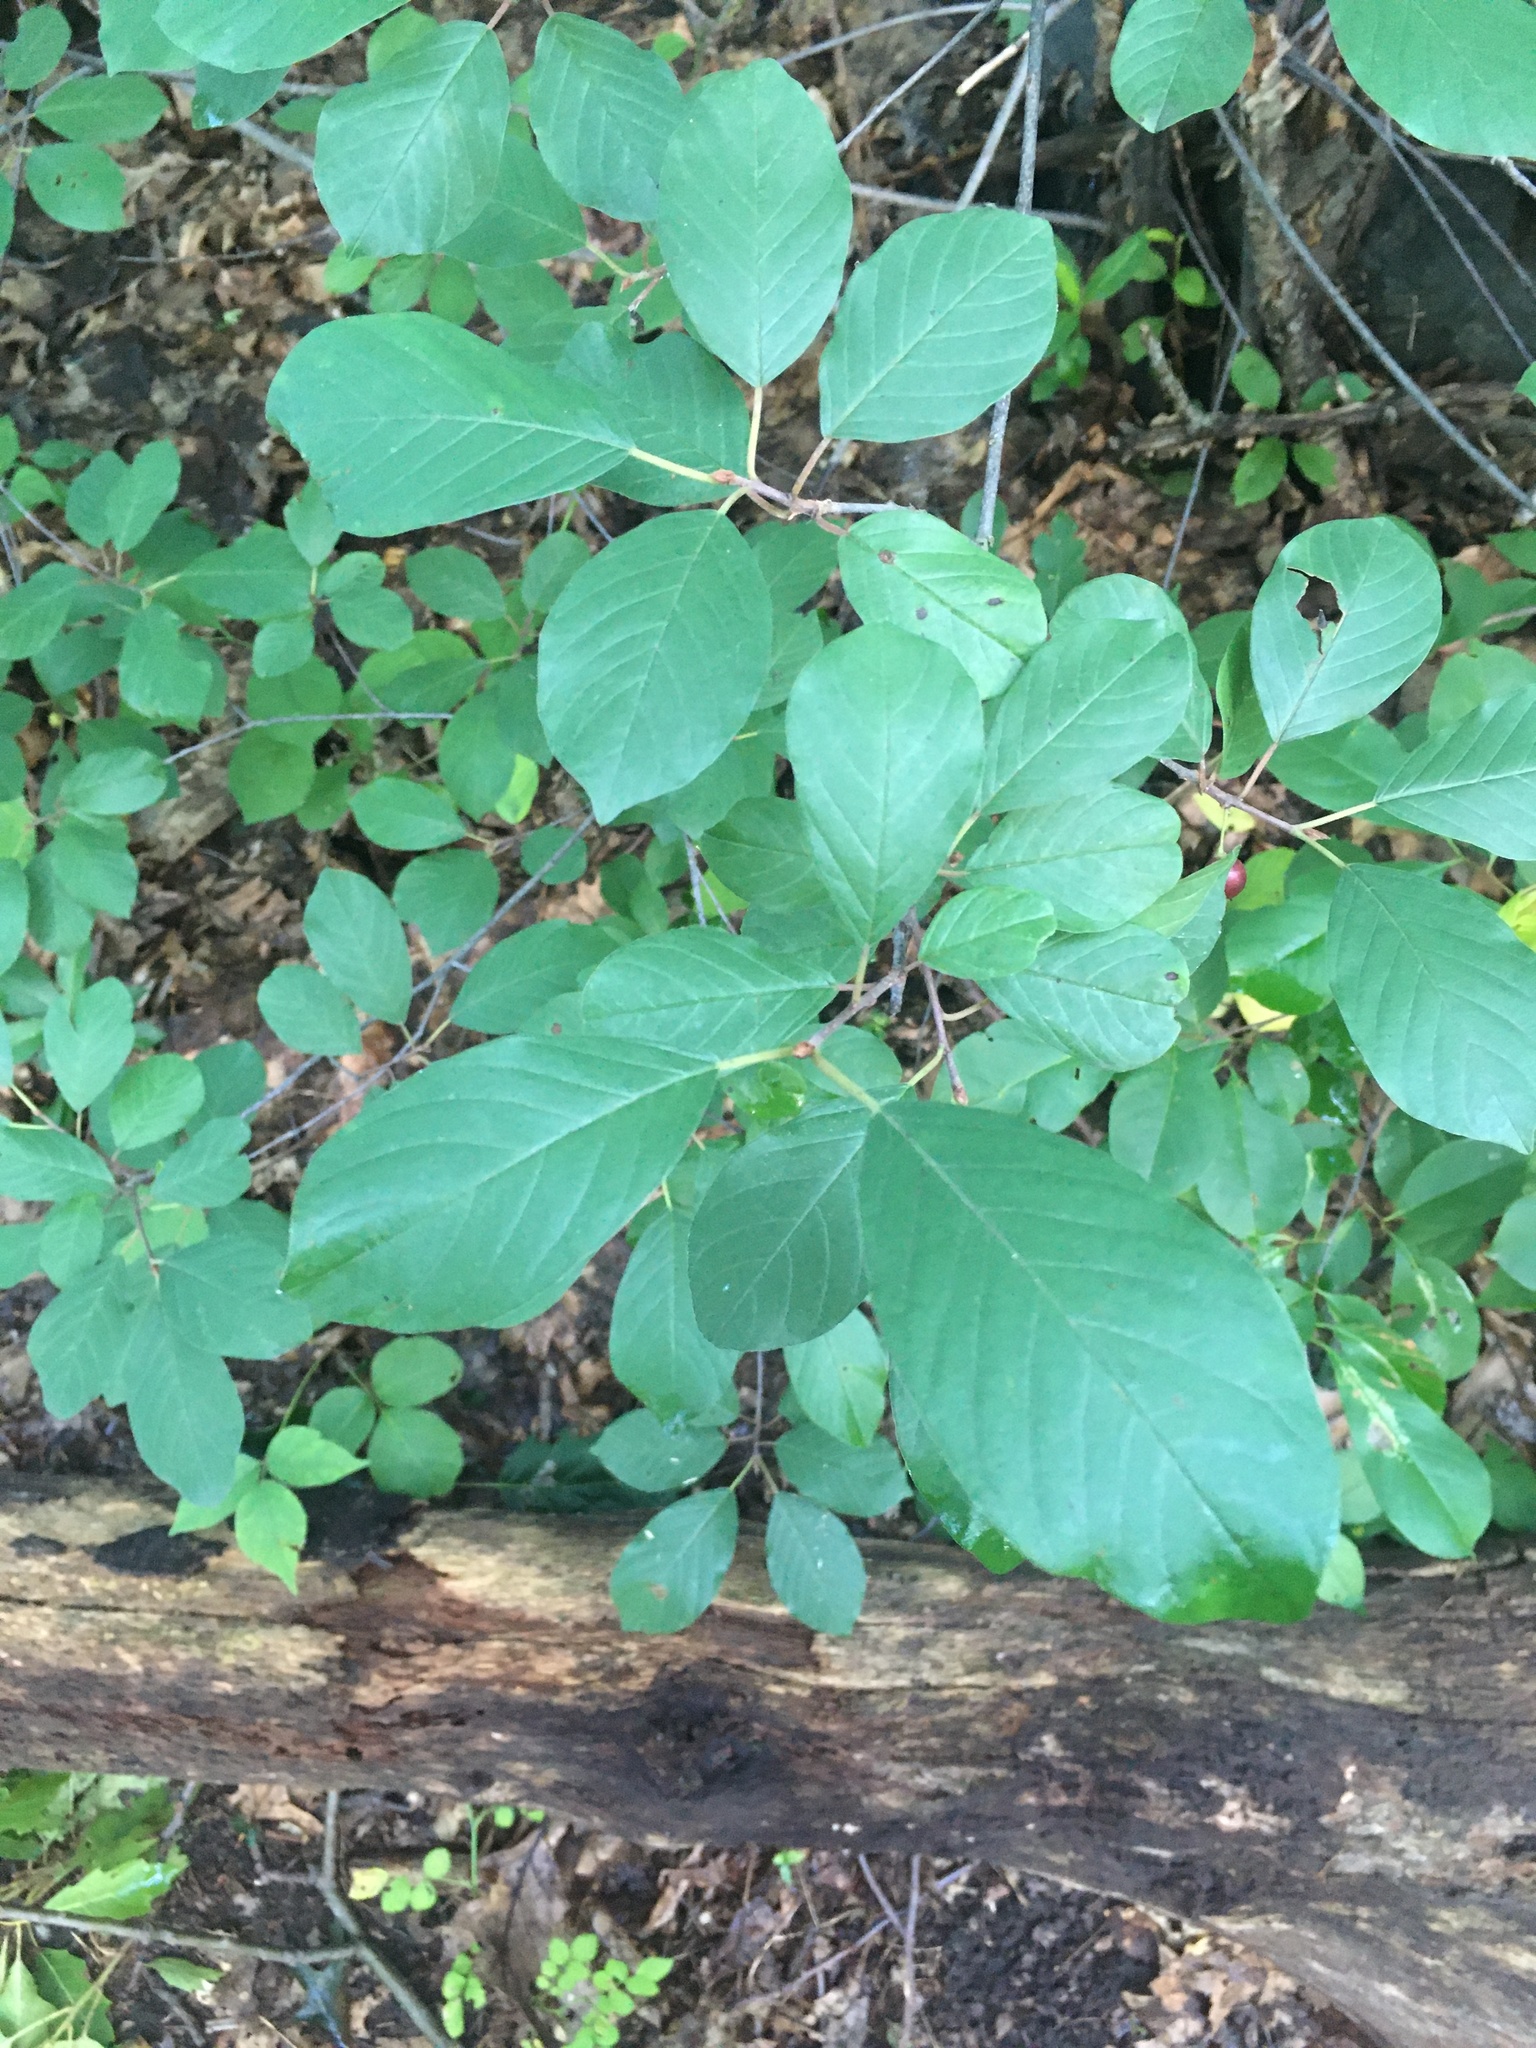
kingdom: Plantae
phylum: Tracheophyta
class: Magnoliopsida
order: Rosales
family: Rhamnaceae
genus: Frangula
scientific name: Frangula alnus
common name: Alder buckthorn
